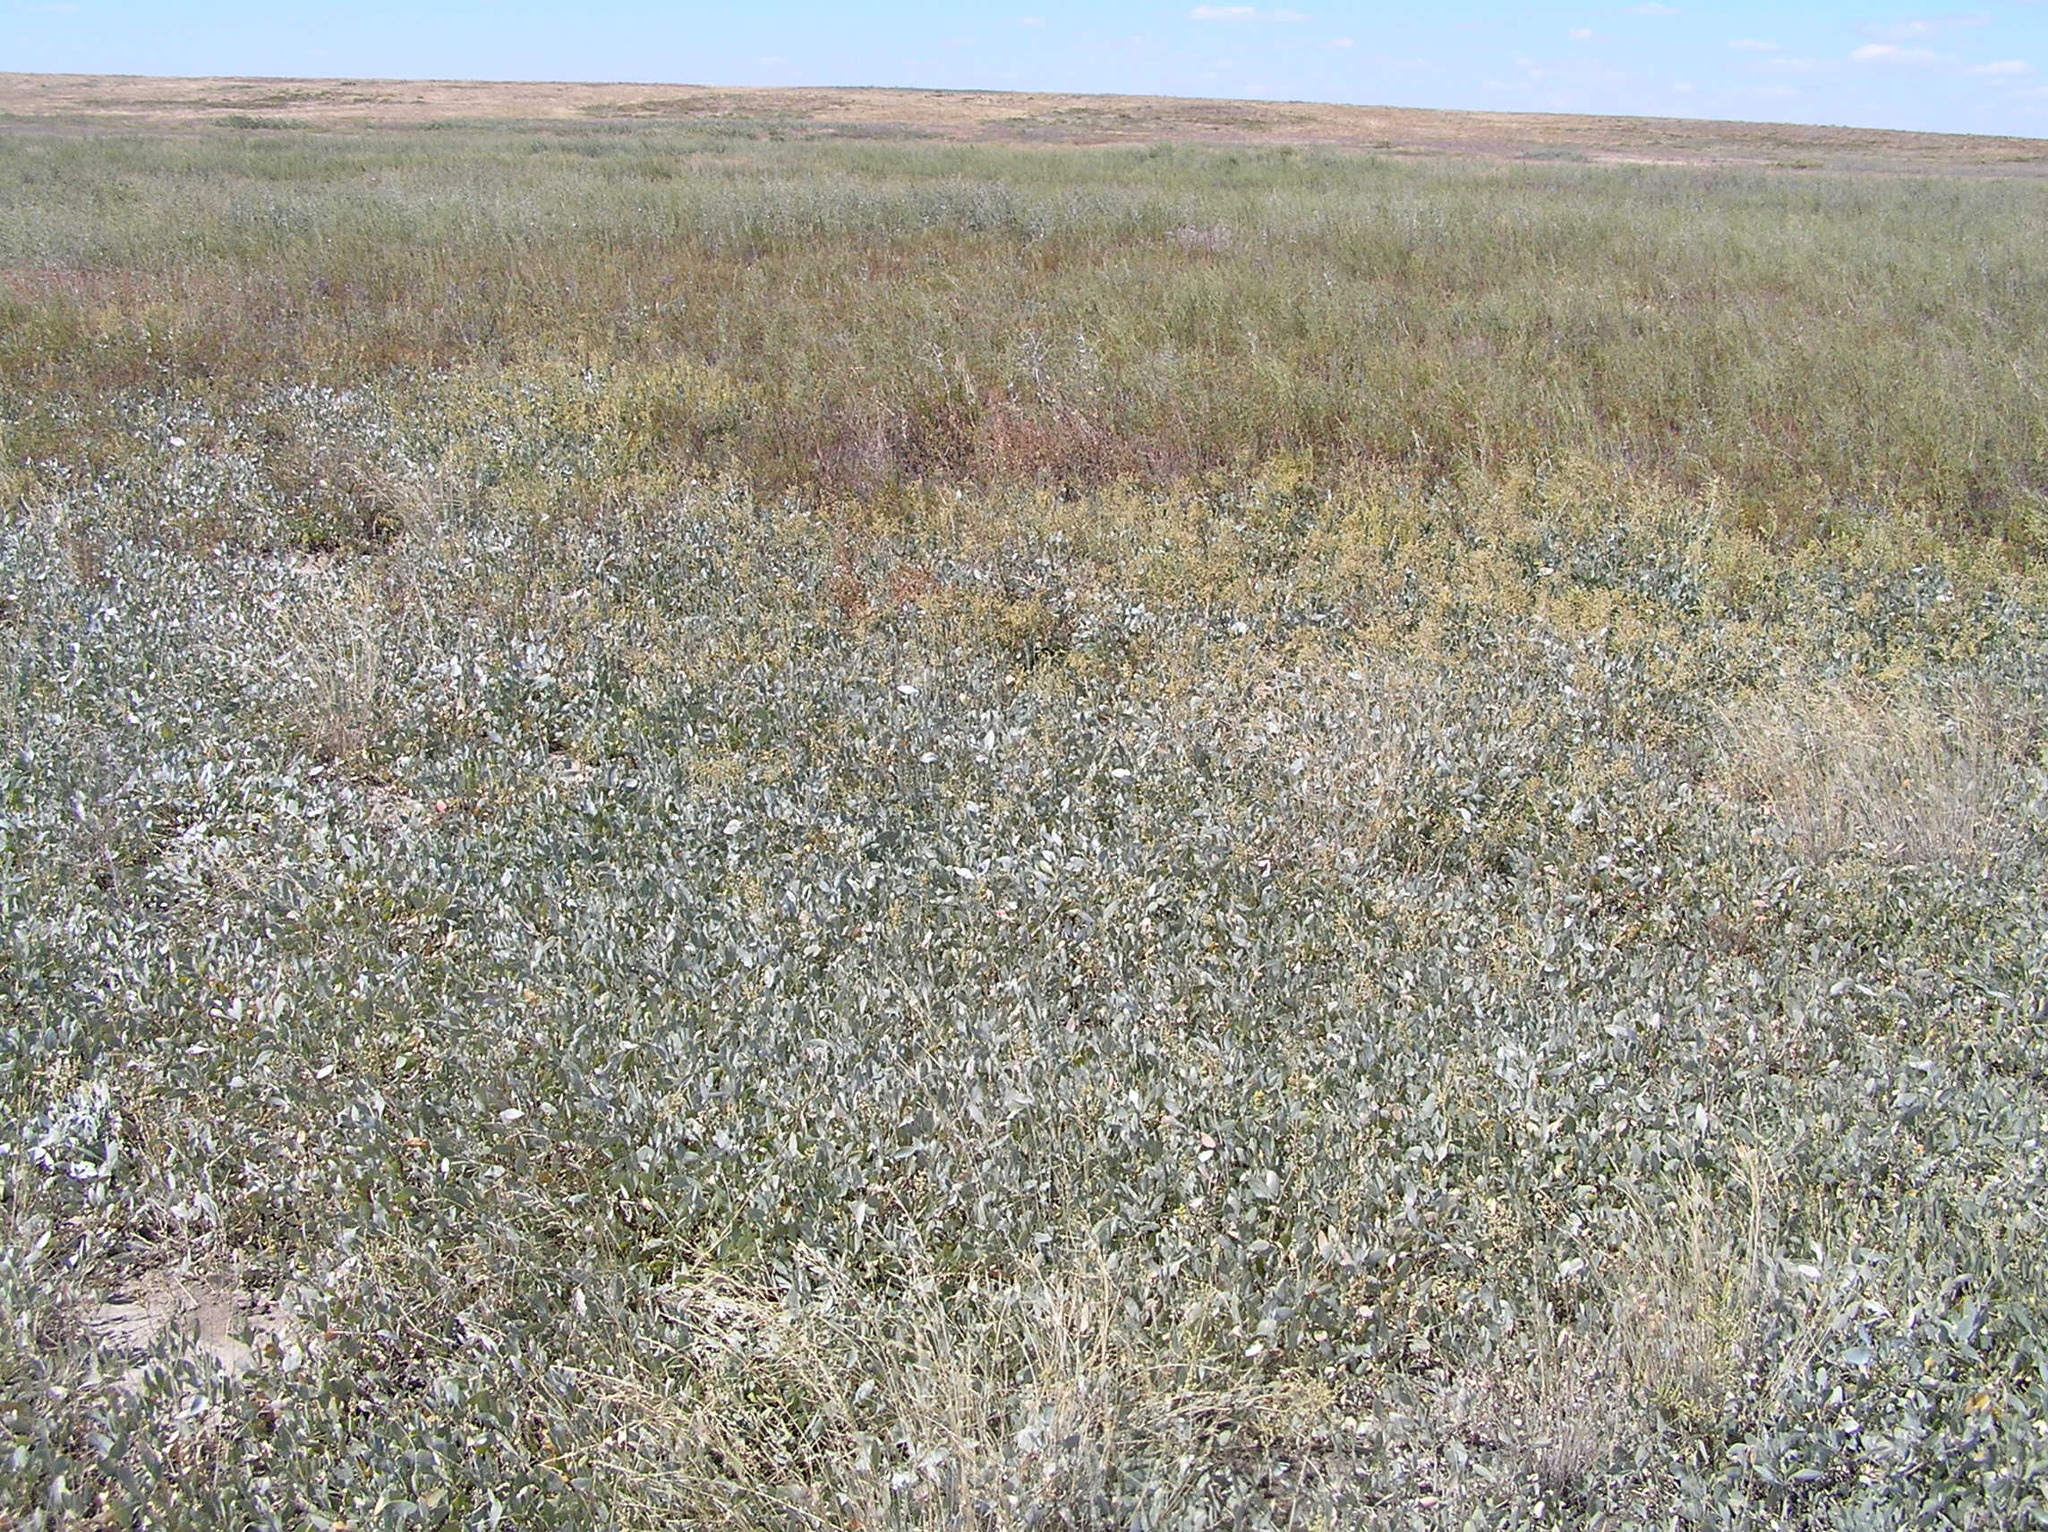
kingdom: Plantae
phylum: Tracheophyta
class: Magnoliopsida
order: Caryophyllales
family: Amaranthaceae
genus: Halimione
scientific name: Halimione verrucifera
